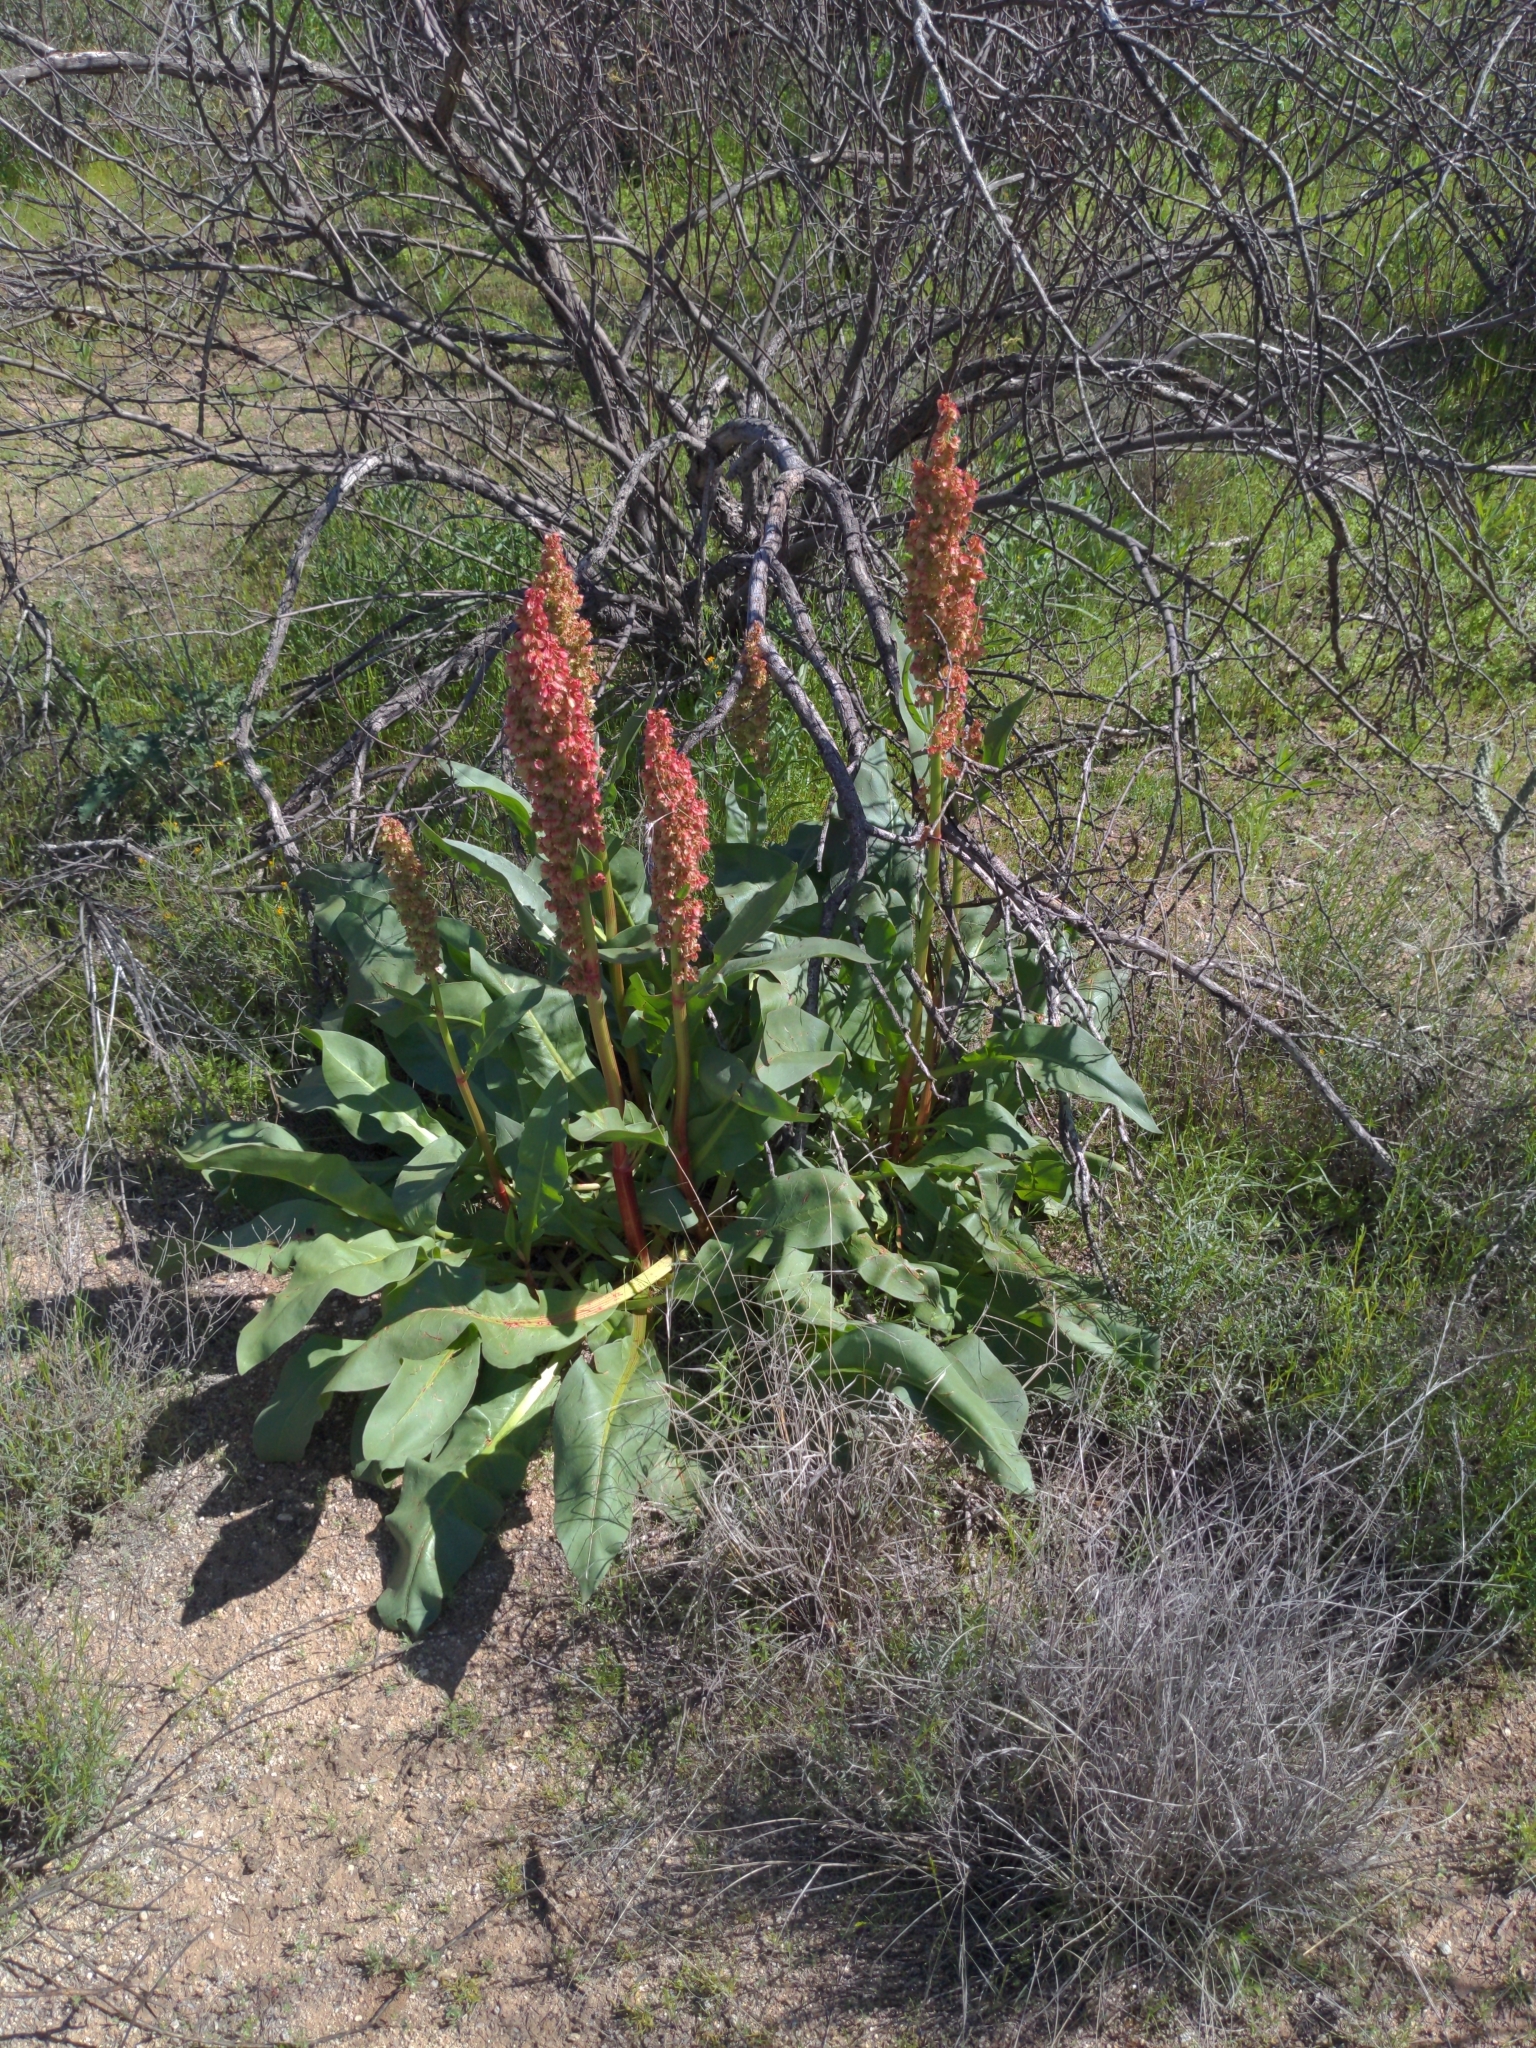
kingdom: Plantae
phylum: Tracheophyta
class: Magnoliopsida
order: Caryophyllales
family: Polygonaceae
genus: Rumex
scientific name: Rumex hymenosepalus
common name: Ganagra
